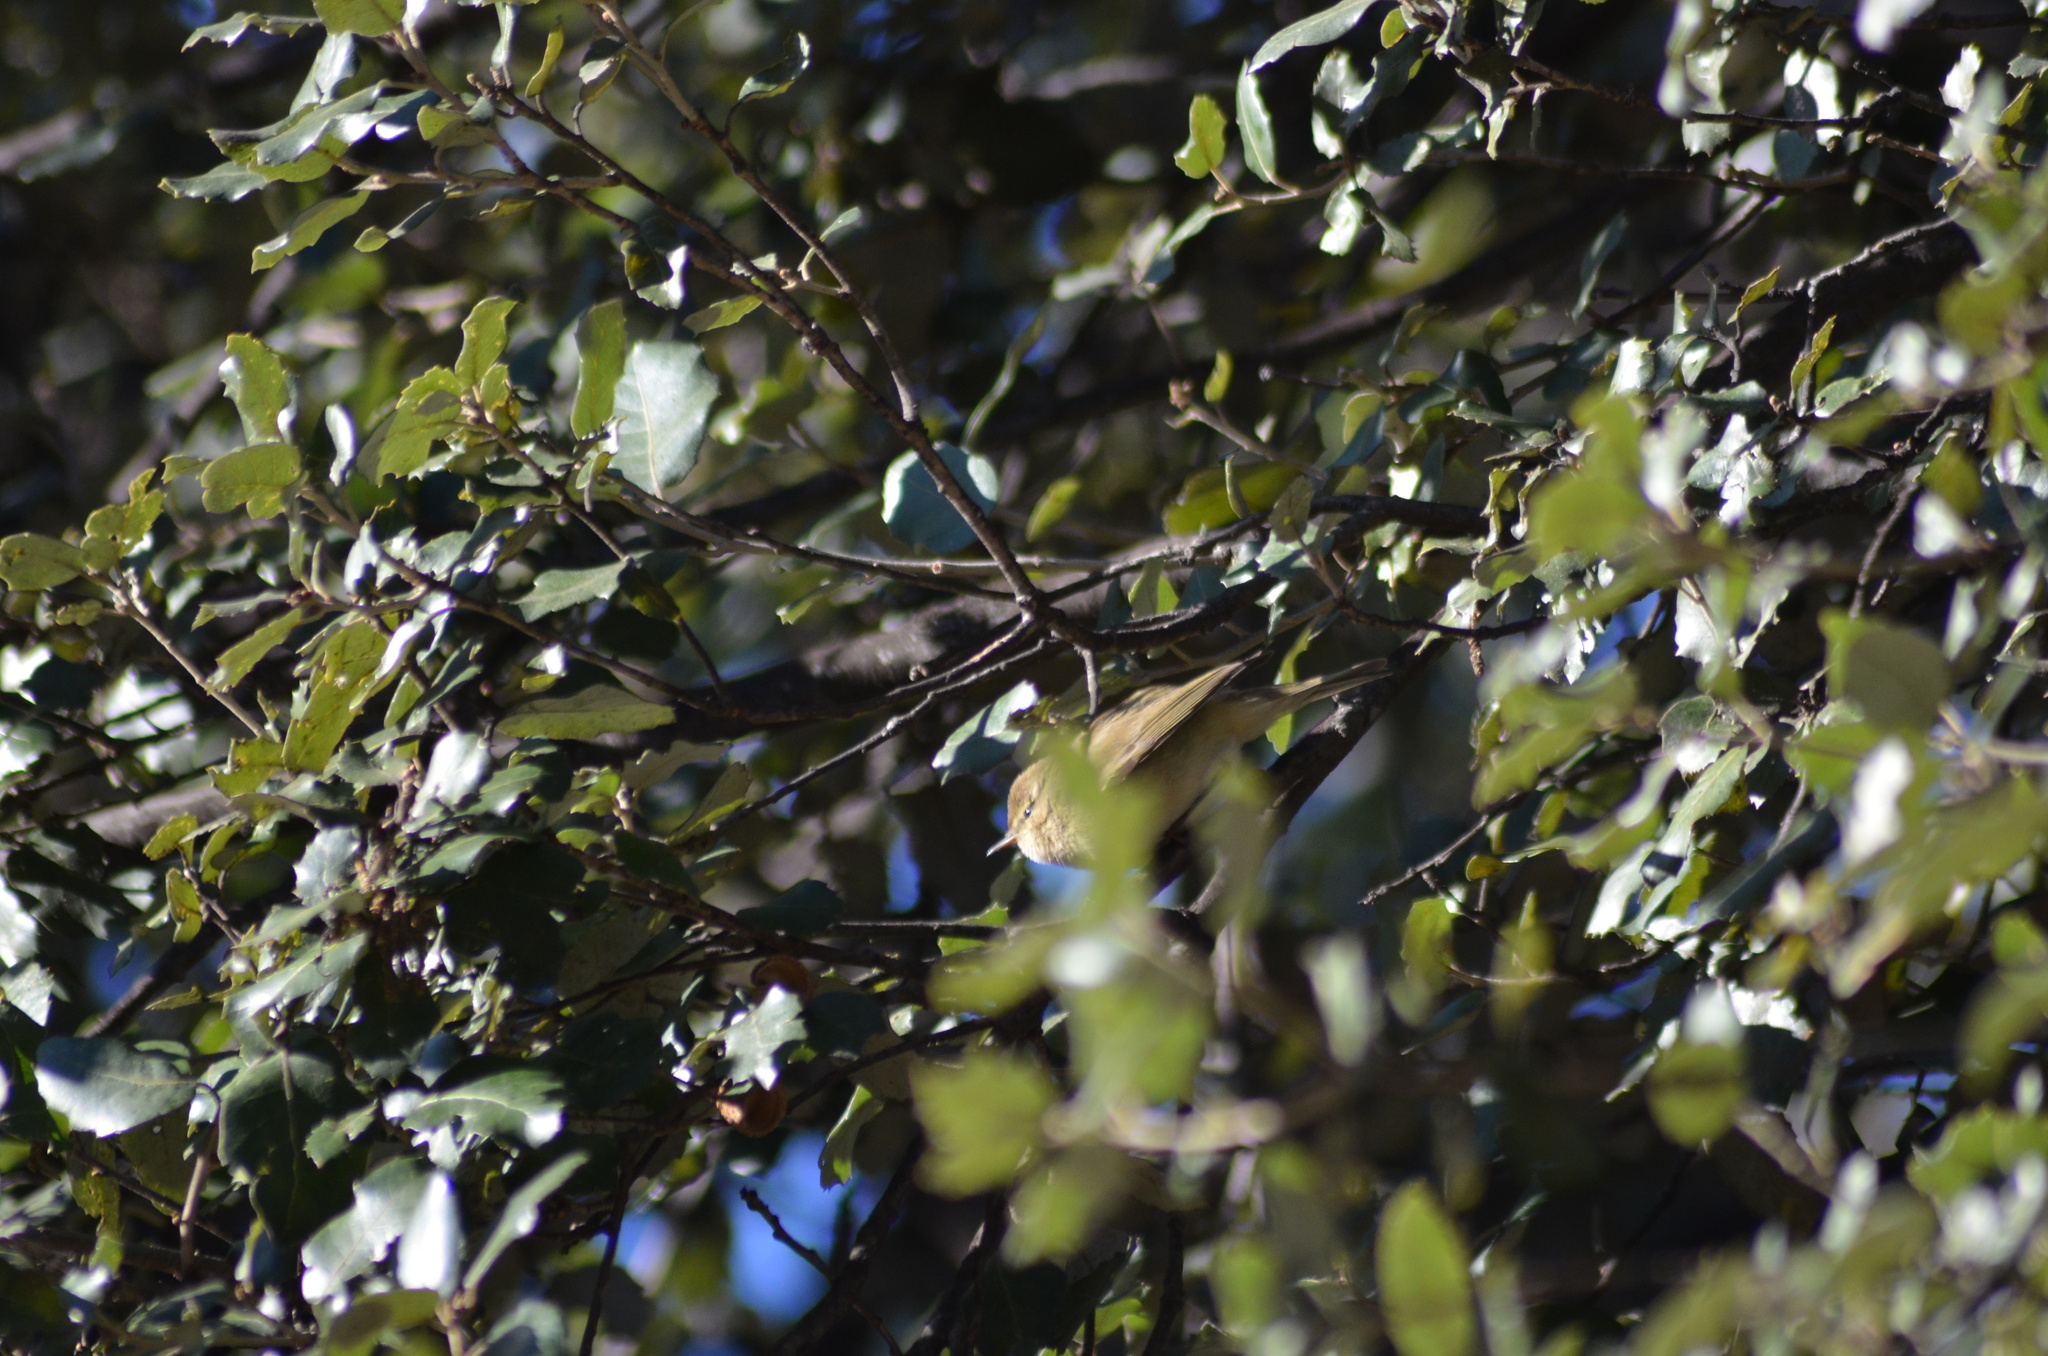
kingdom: Animalia
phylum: Chordata
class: Aves
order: Passeriformes
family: Phylloscopidae
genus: Phylloscopus
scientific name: Phylloscopus collybita
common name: Common chiffchaff
